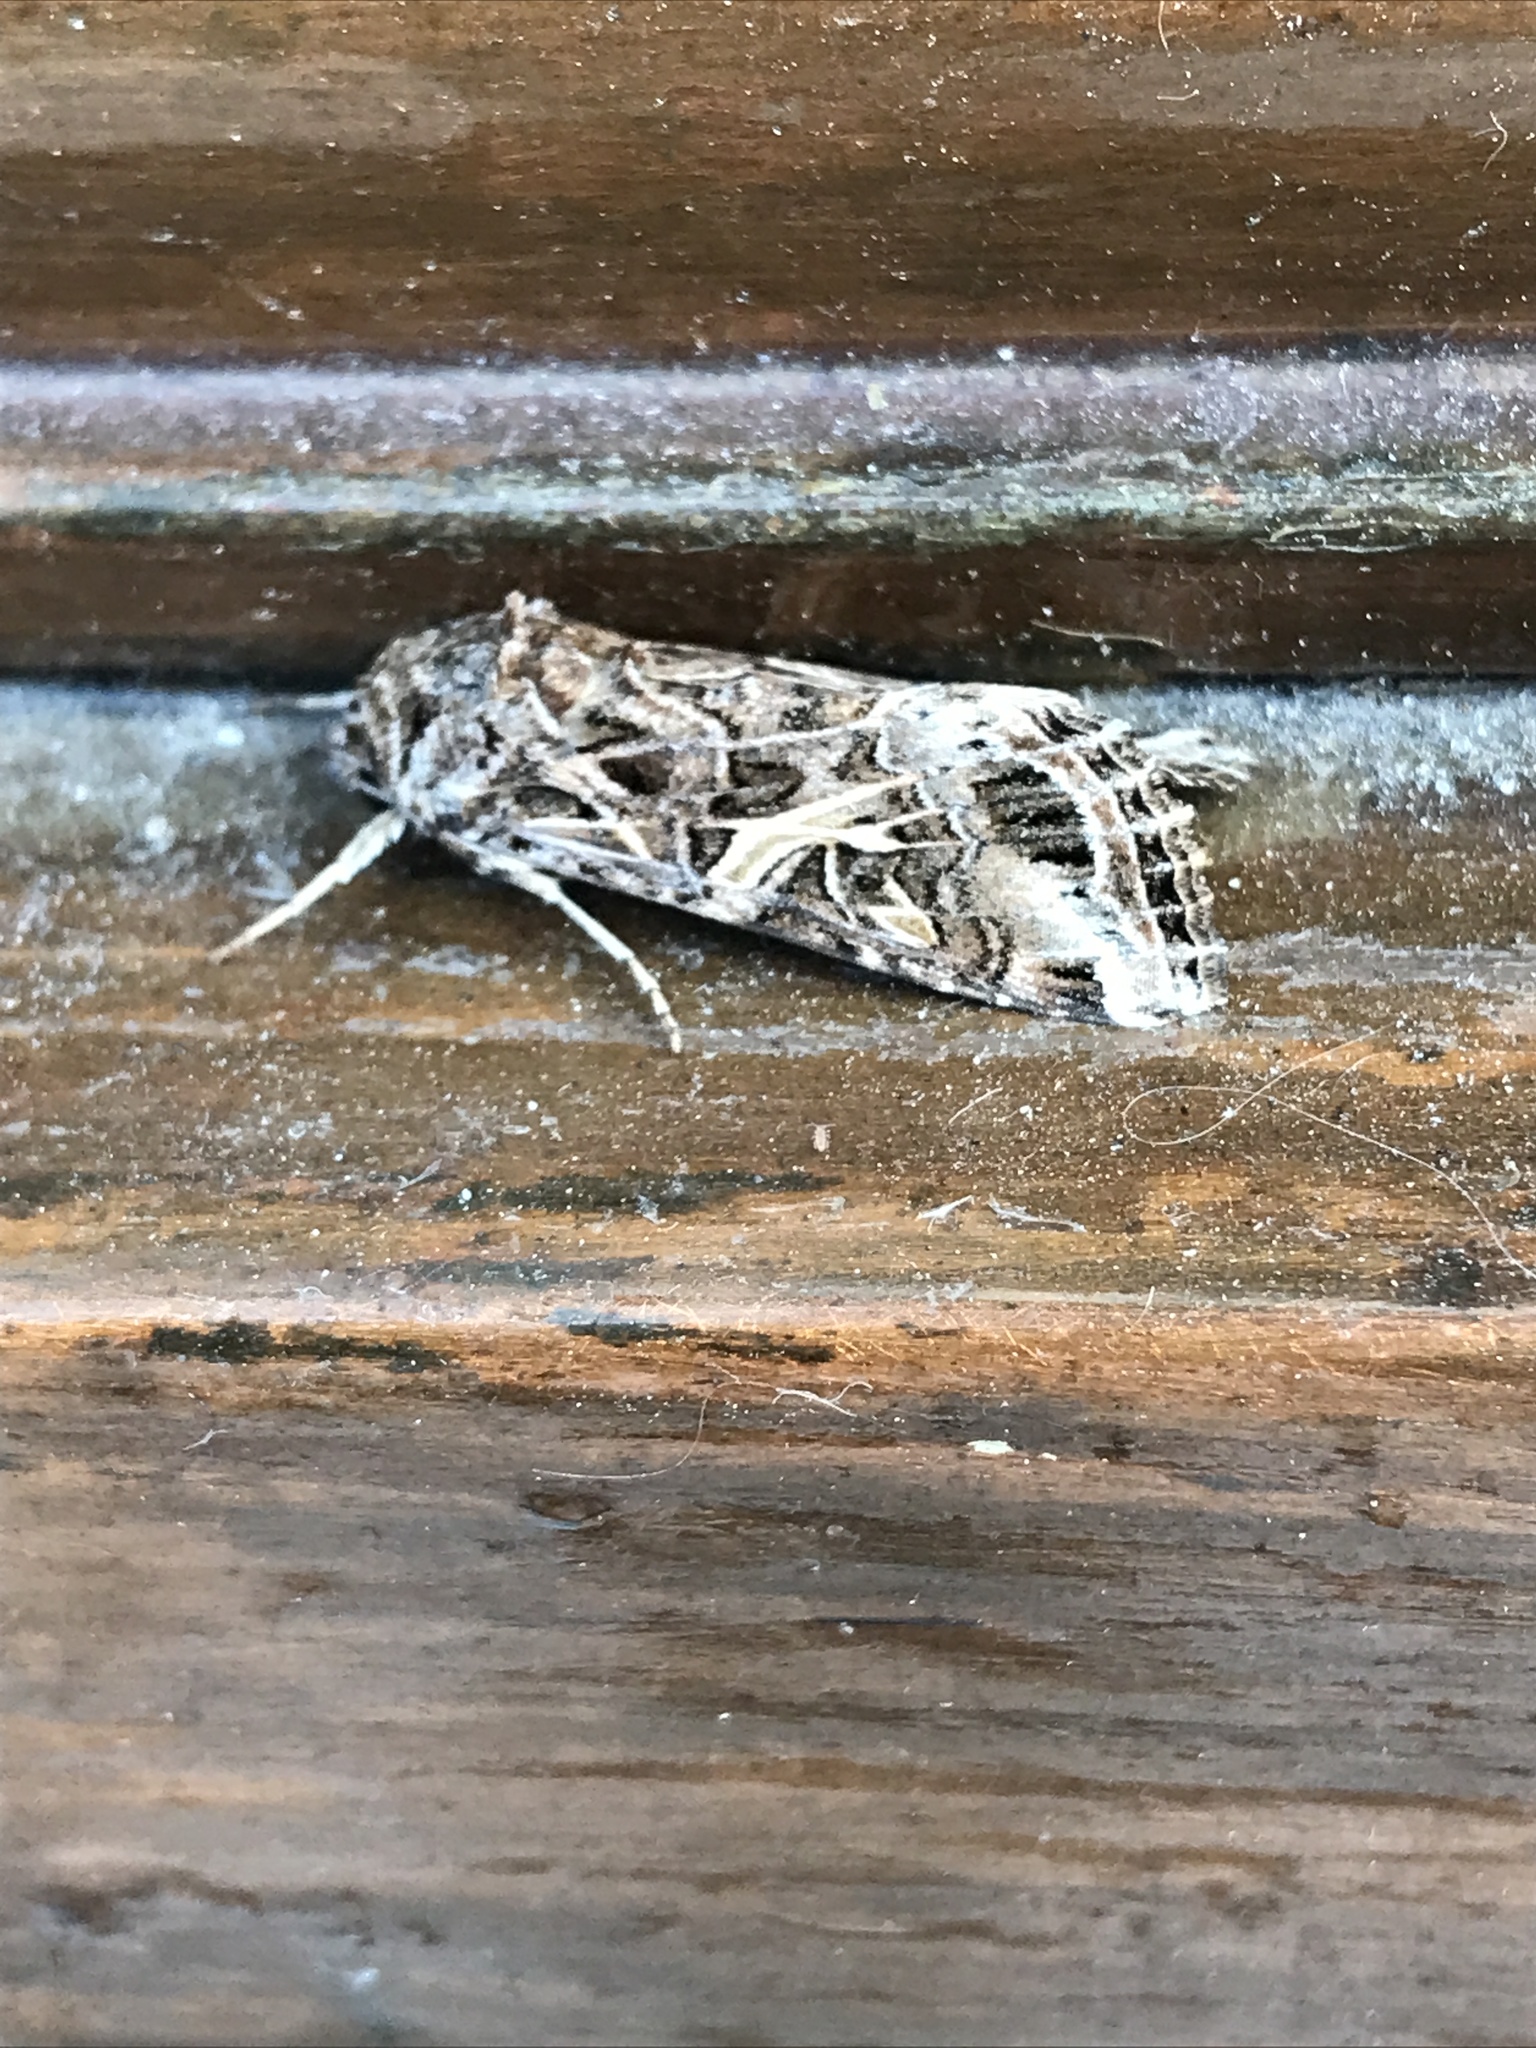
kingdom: Animalia
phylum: Arthropoda
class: Insecta
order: Lepidoptera
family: Noctuidae
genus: Spodoptera
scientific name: Spodoptera ornithogalli
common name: Yellow-striped armyworm
